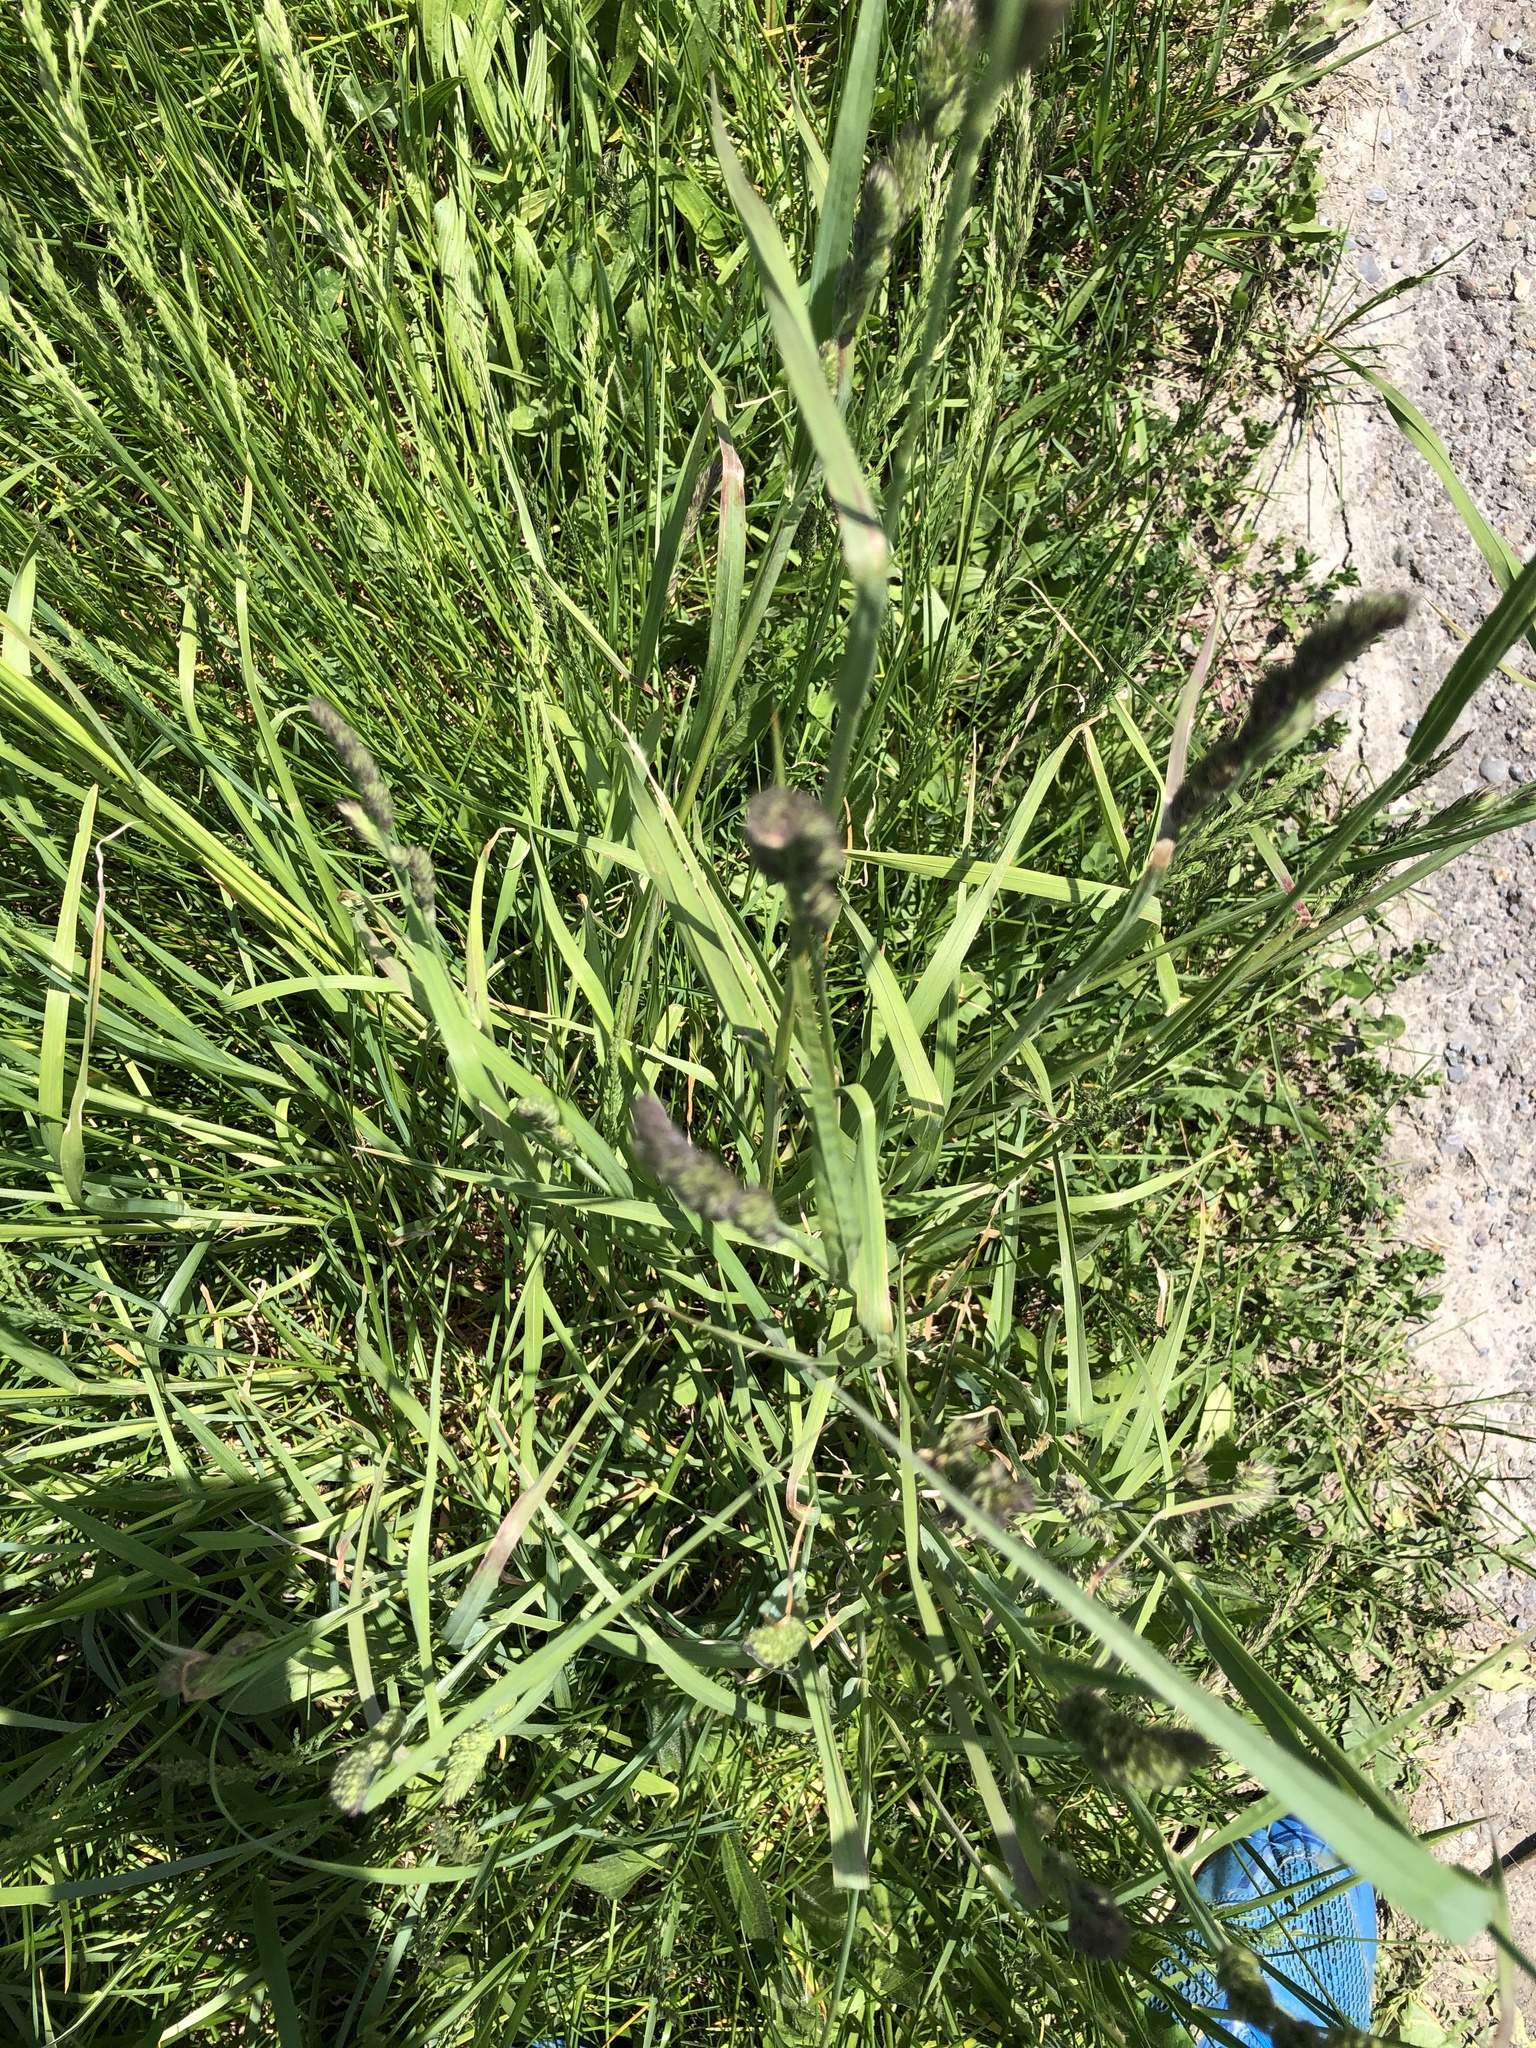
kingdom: Plantae
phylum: Tracheophyta
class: Liliopsida
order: Poales
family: Poaceae
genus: Dactylis
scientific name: Dactylis glomerata
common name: Orchardgrass
